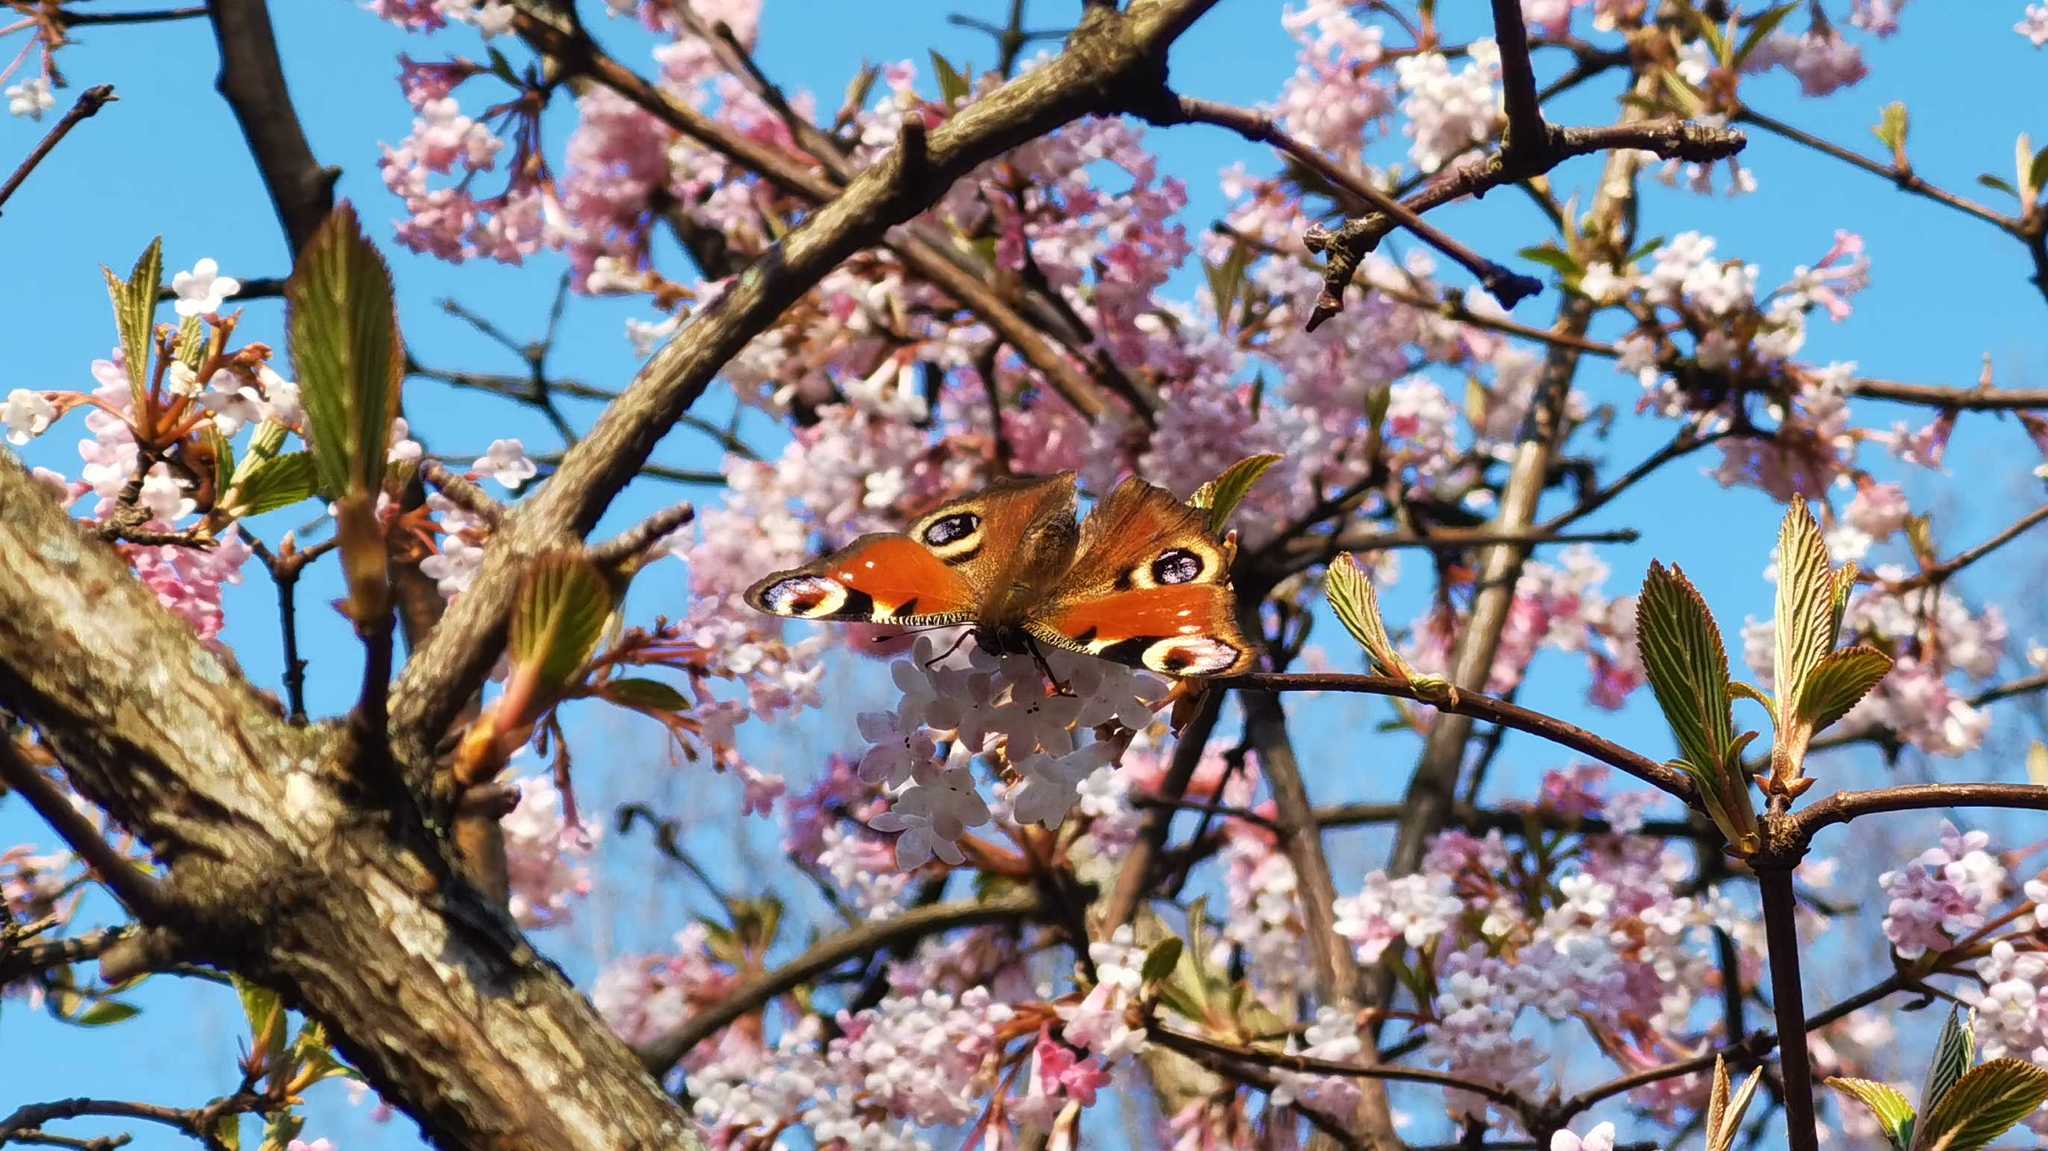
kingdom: Animalia
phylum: Arthropoda
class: Insecta
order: Lepidoptera
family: Nymphalidae
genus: Aglais
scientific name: Aglais io
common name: Peacock
